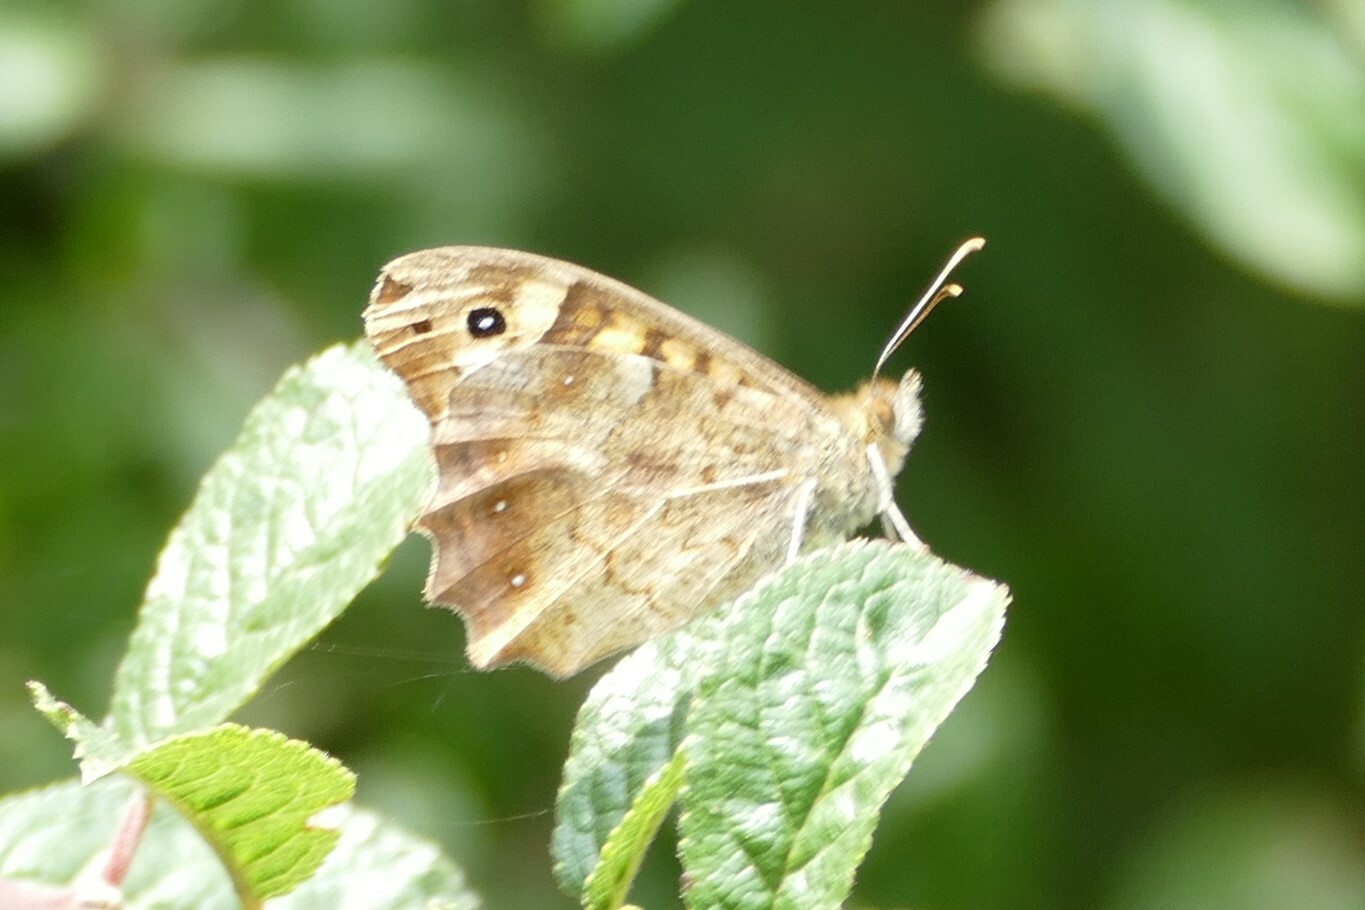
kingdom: Animalia
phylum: Arthropoda
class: Insecta
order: Lepidoptera
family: Nymphalidae
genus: Pararge
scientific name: Pararge aegeria
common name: Speckled wood
